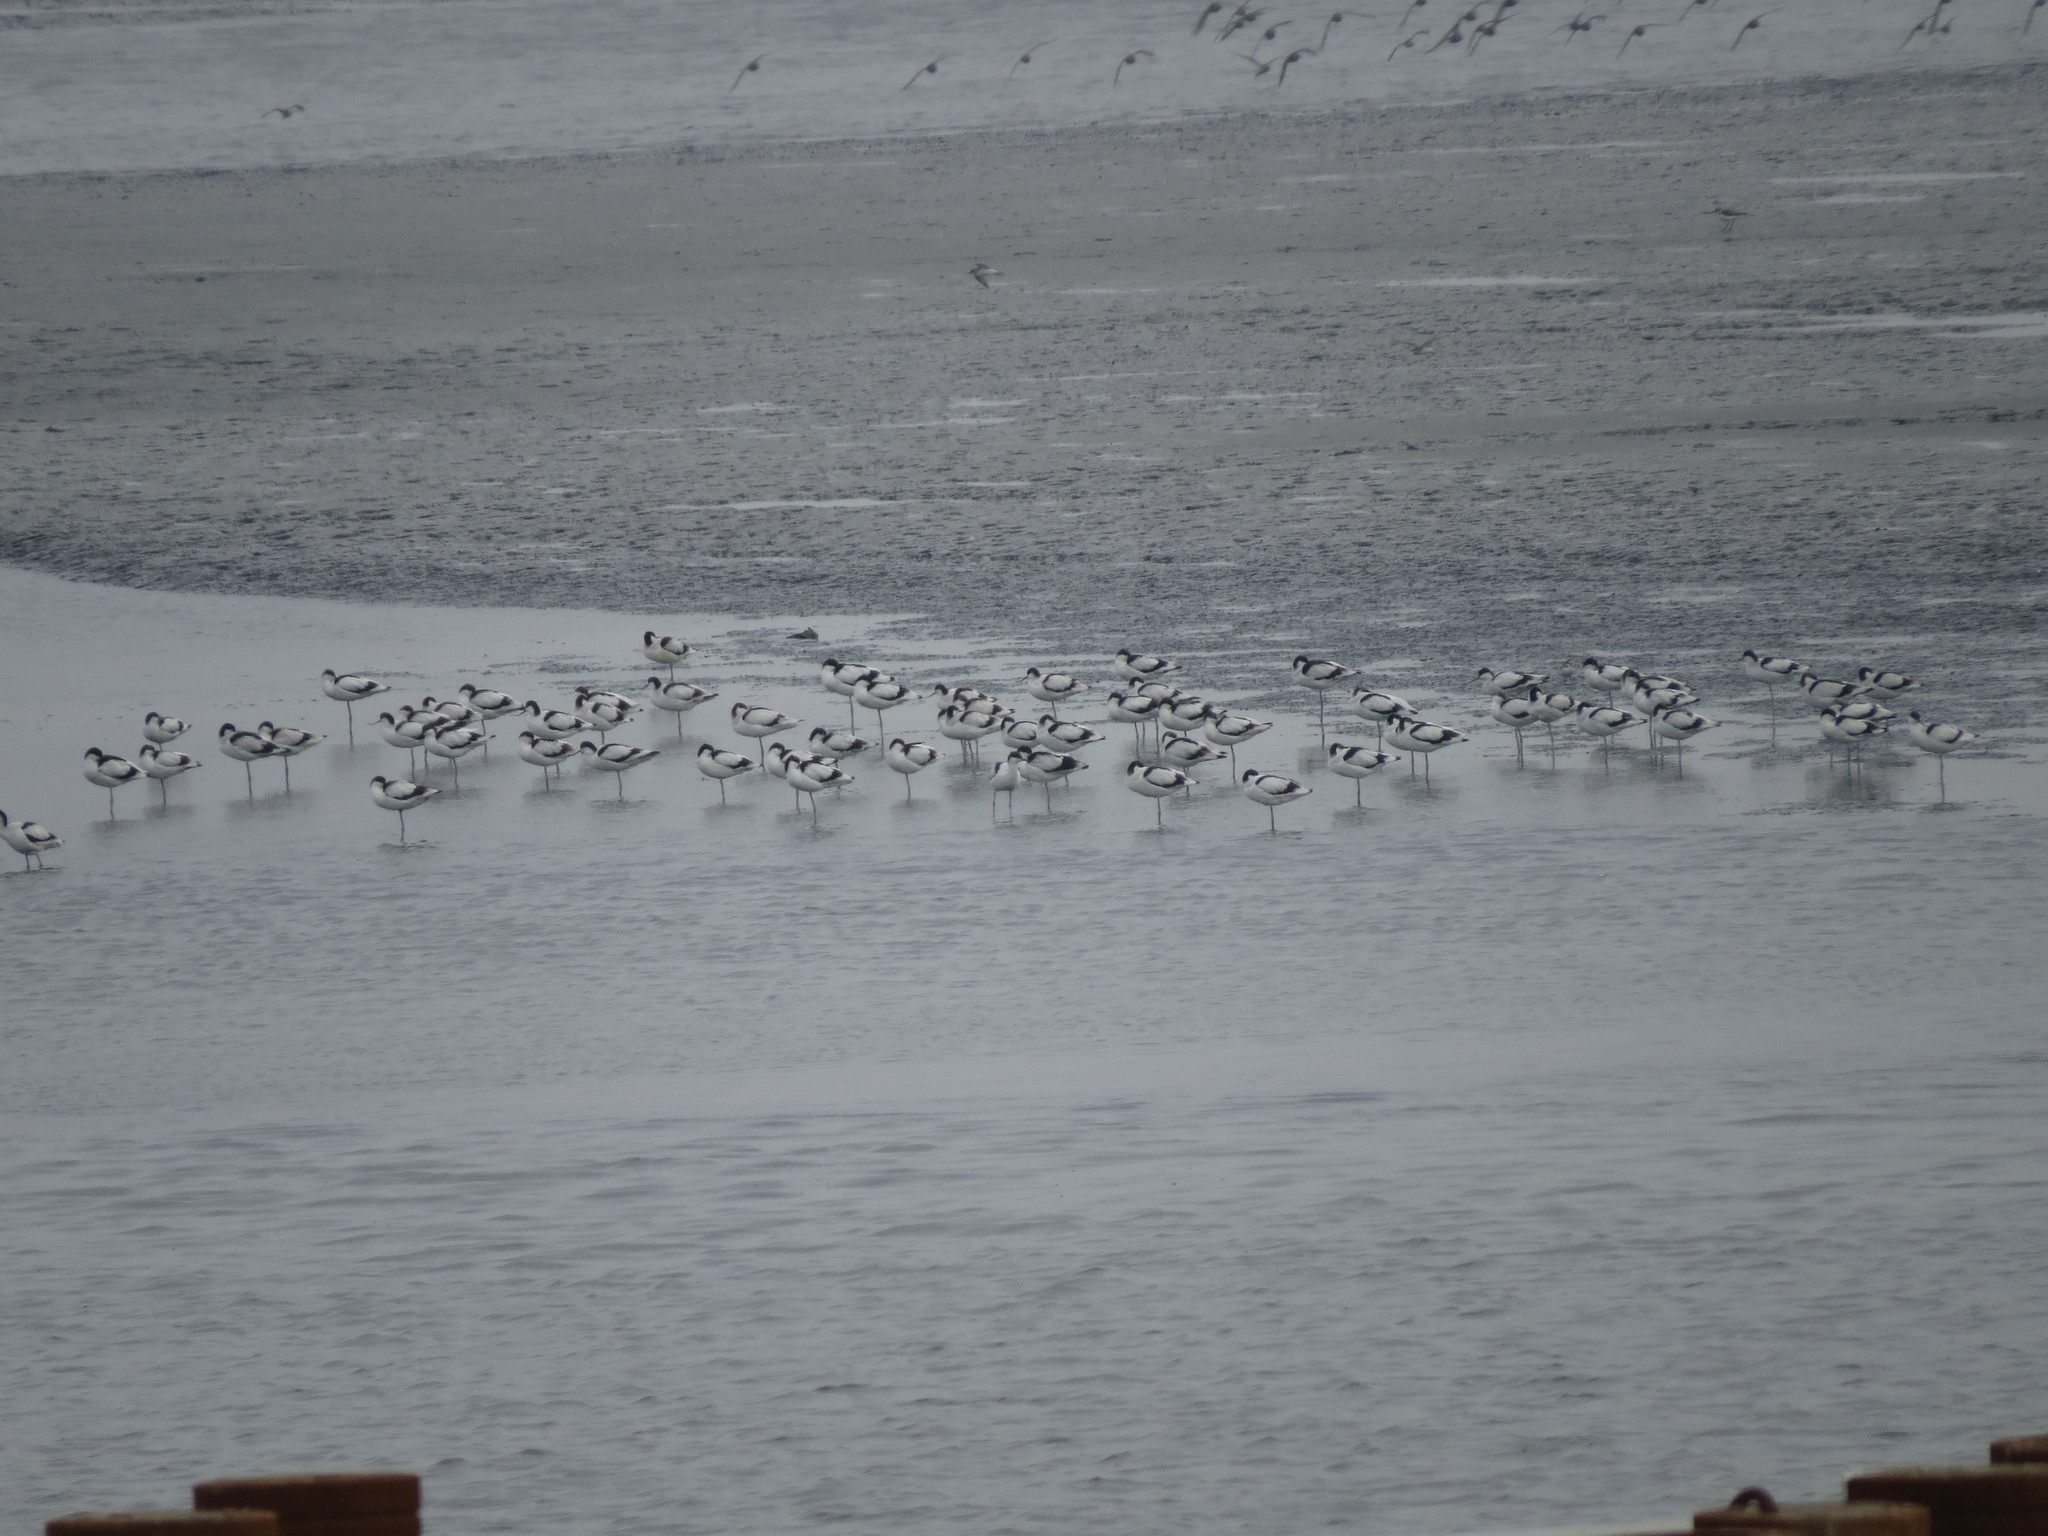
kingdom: Animalia
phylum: Chordata
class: Aves
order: Charadriiformes
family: Recurvirostridae
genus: Recurvirostra
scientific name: Recurvirostra avosetta
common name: Pied avocet
